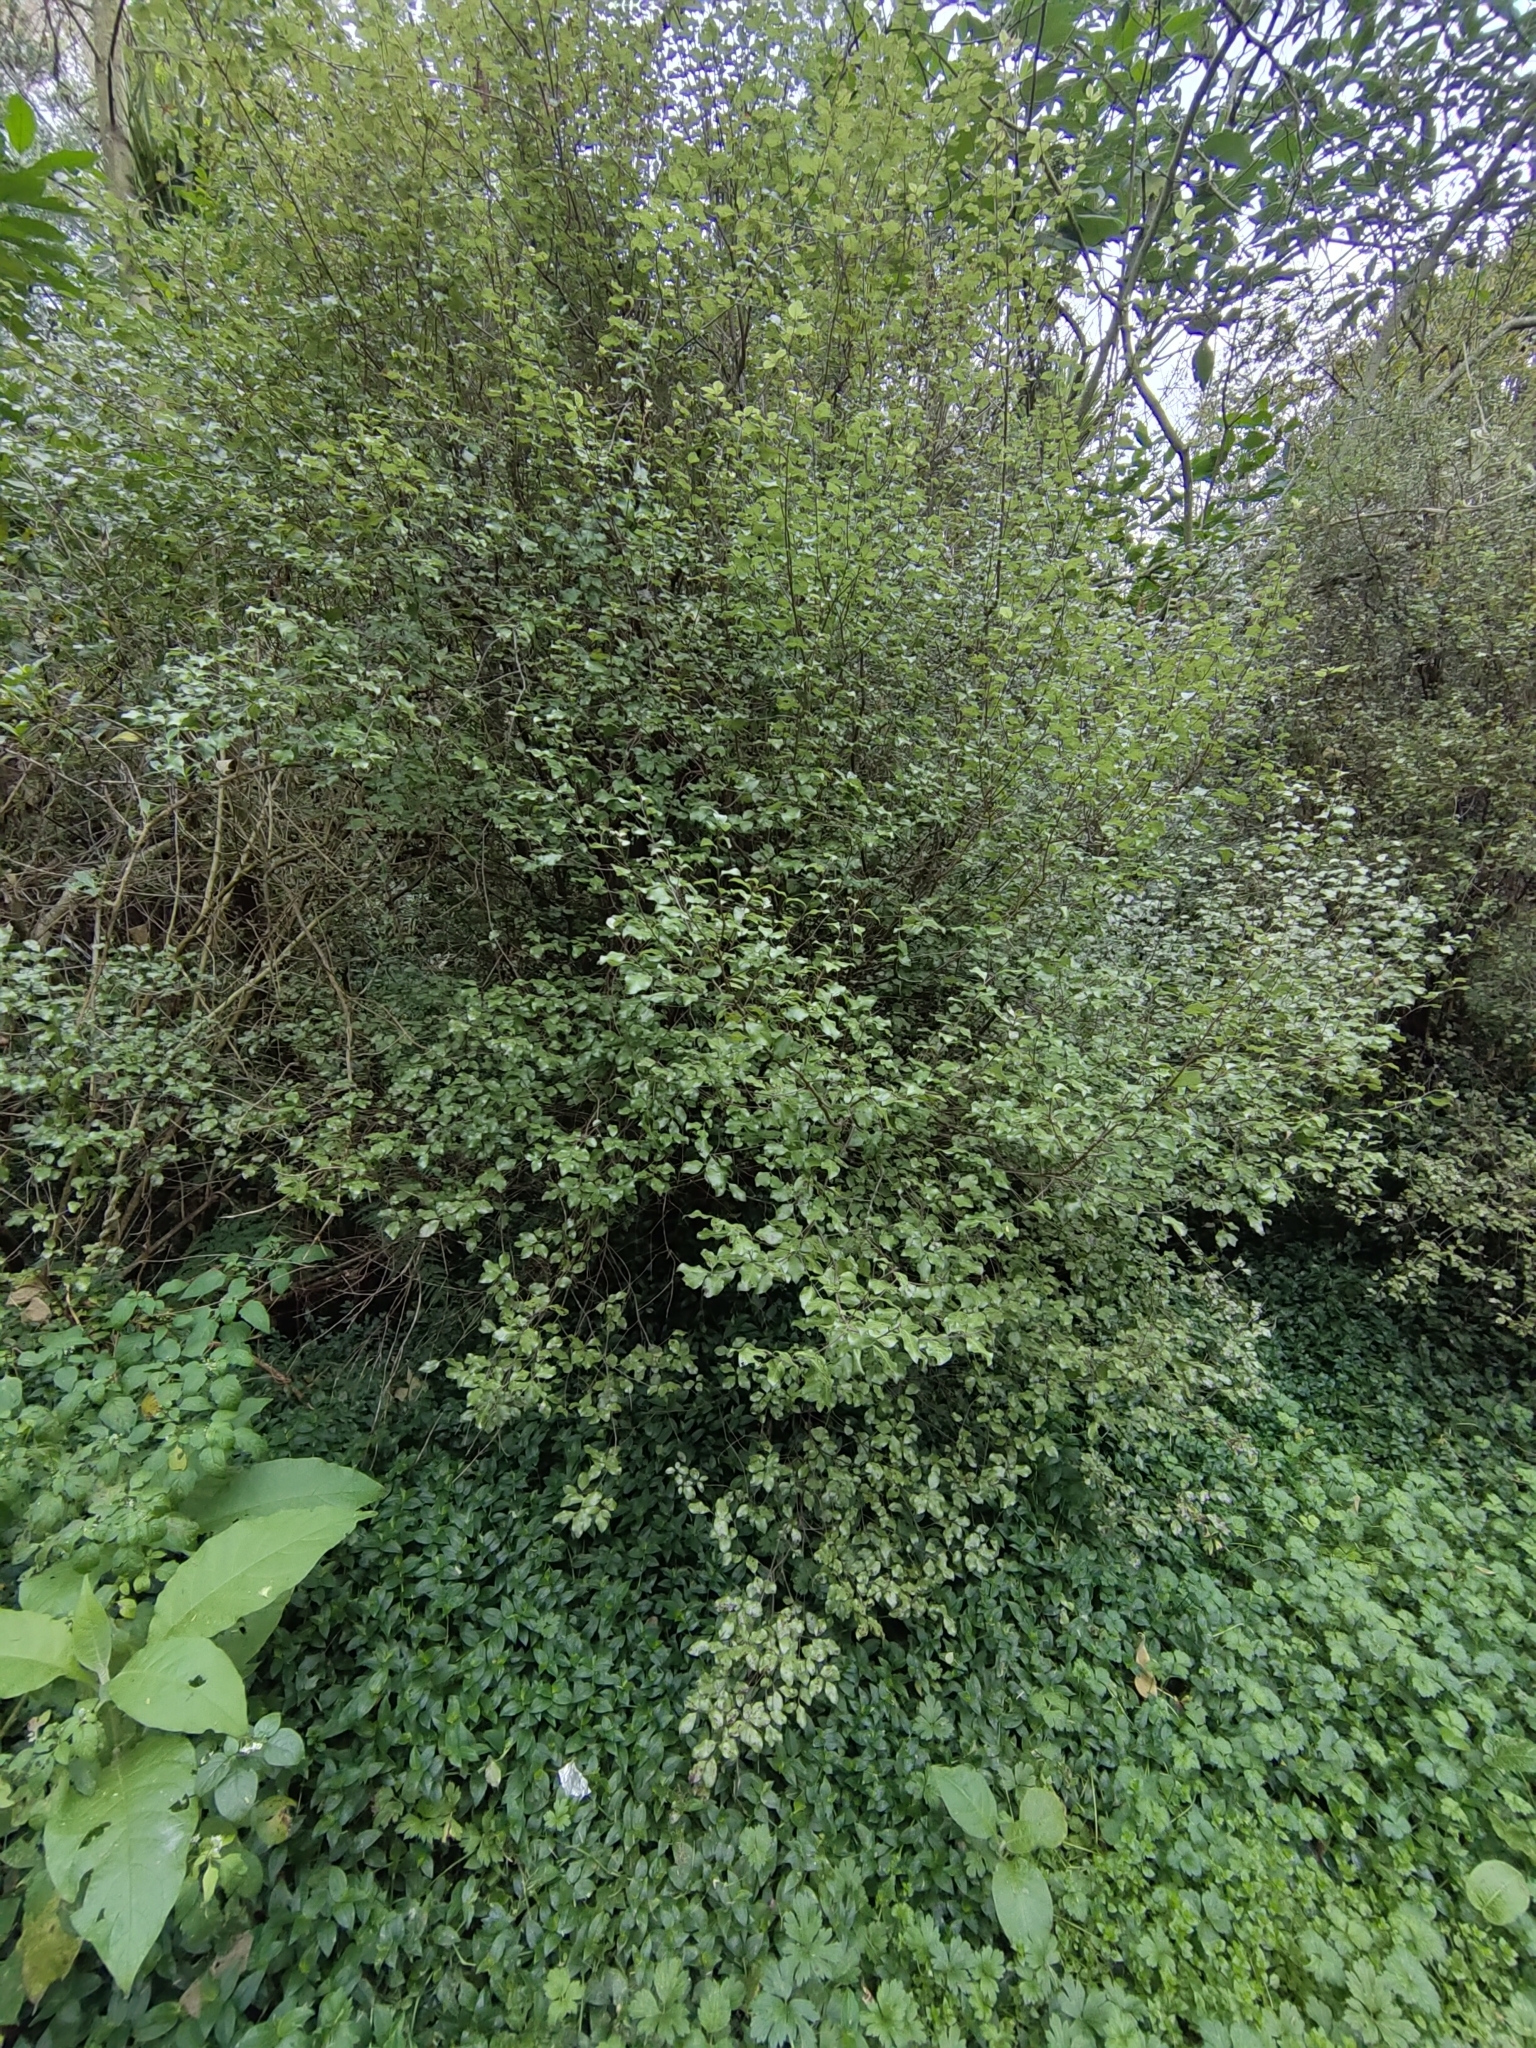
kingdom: Plantae
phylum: Tracheophyta
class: Magnoliopsida
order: Apiales
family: Pittosporaceae
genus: Pittosporum
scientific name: Pittosporum tenuifolium
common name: Kohuhu
